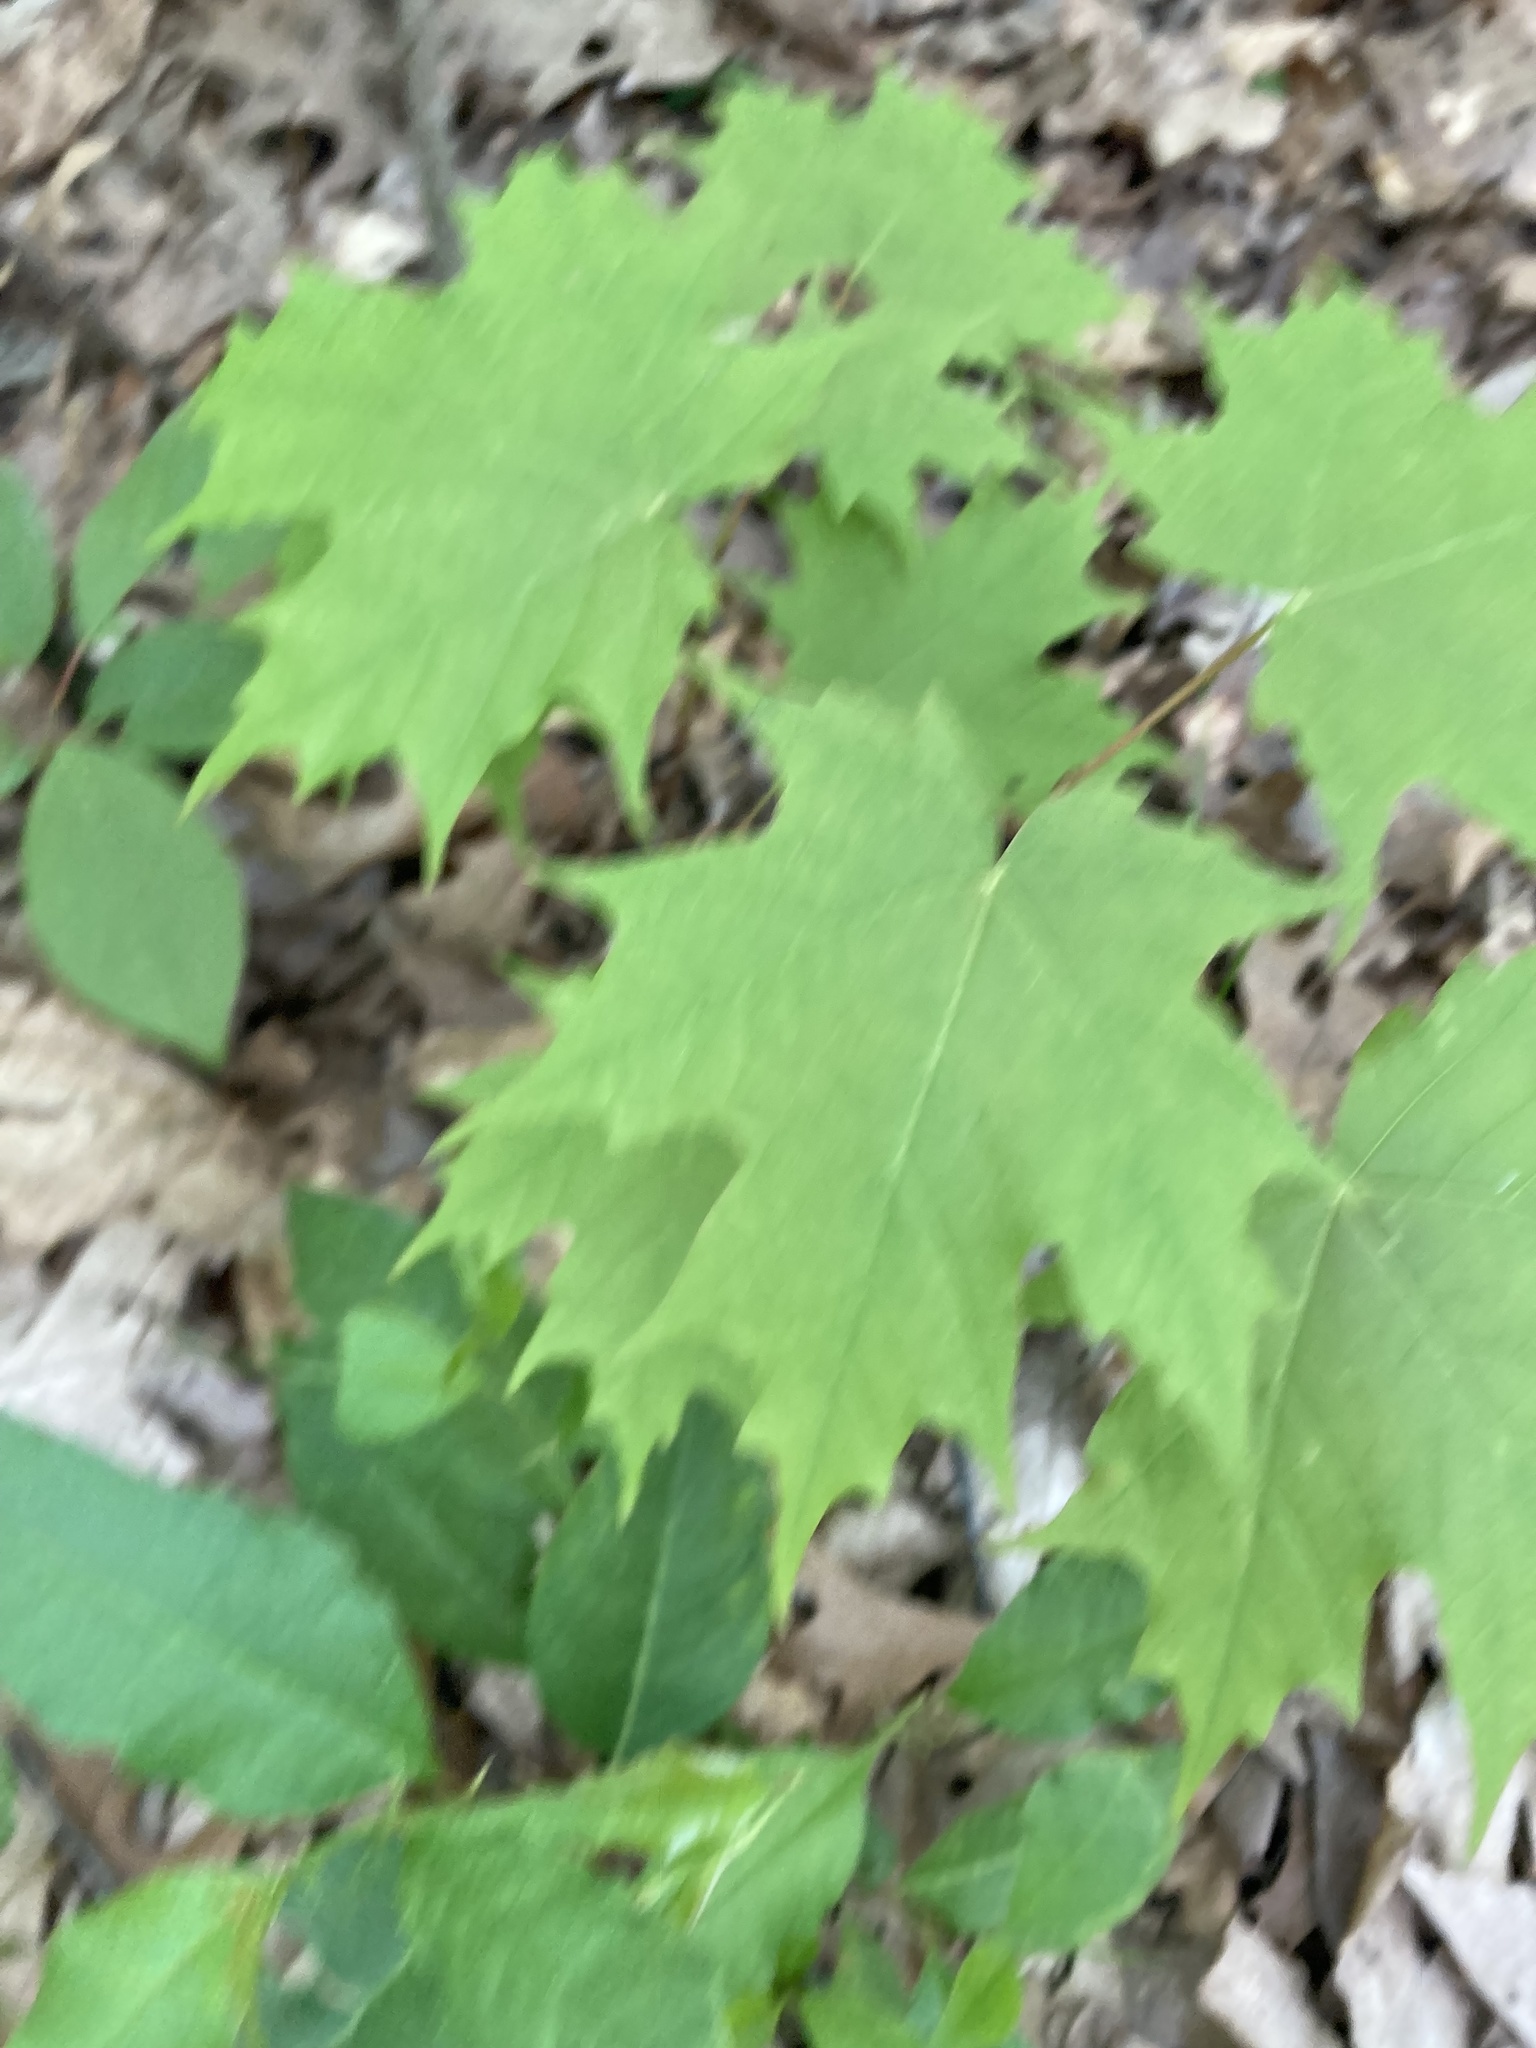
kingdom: Plantae
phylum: Tracheophyta
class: Magnoliopsida
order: Sapindales
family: Sapindaceae
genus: Acer
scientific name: Acer saccharum
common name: Sugar maple
